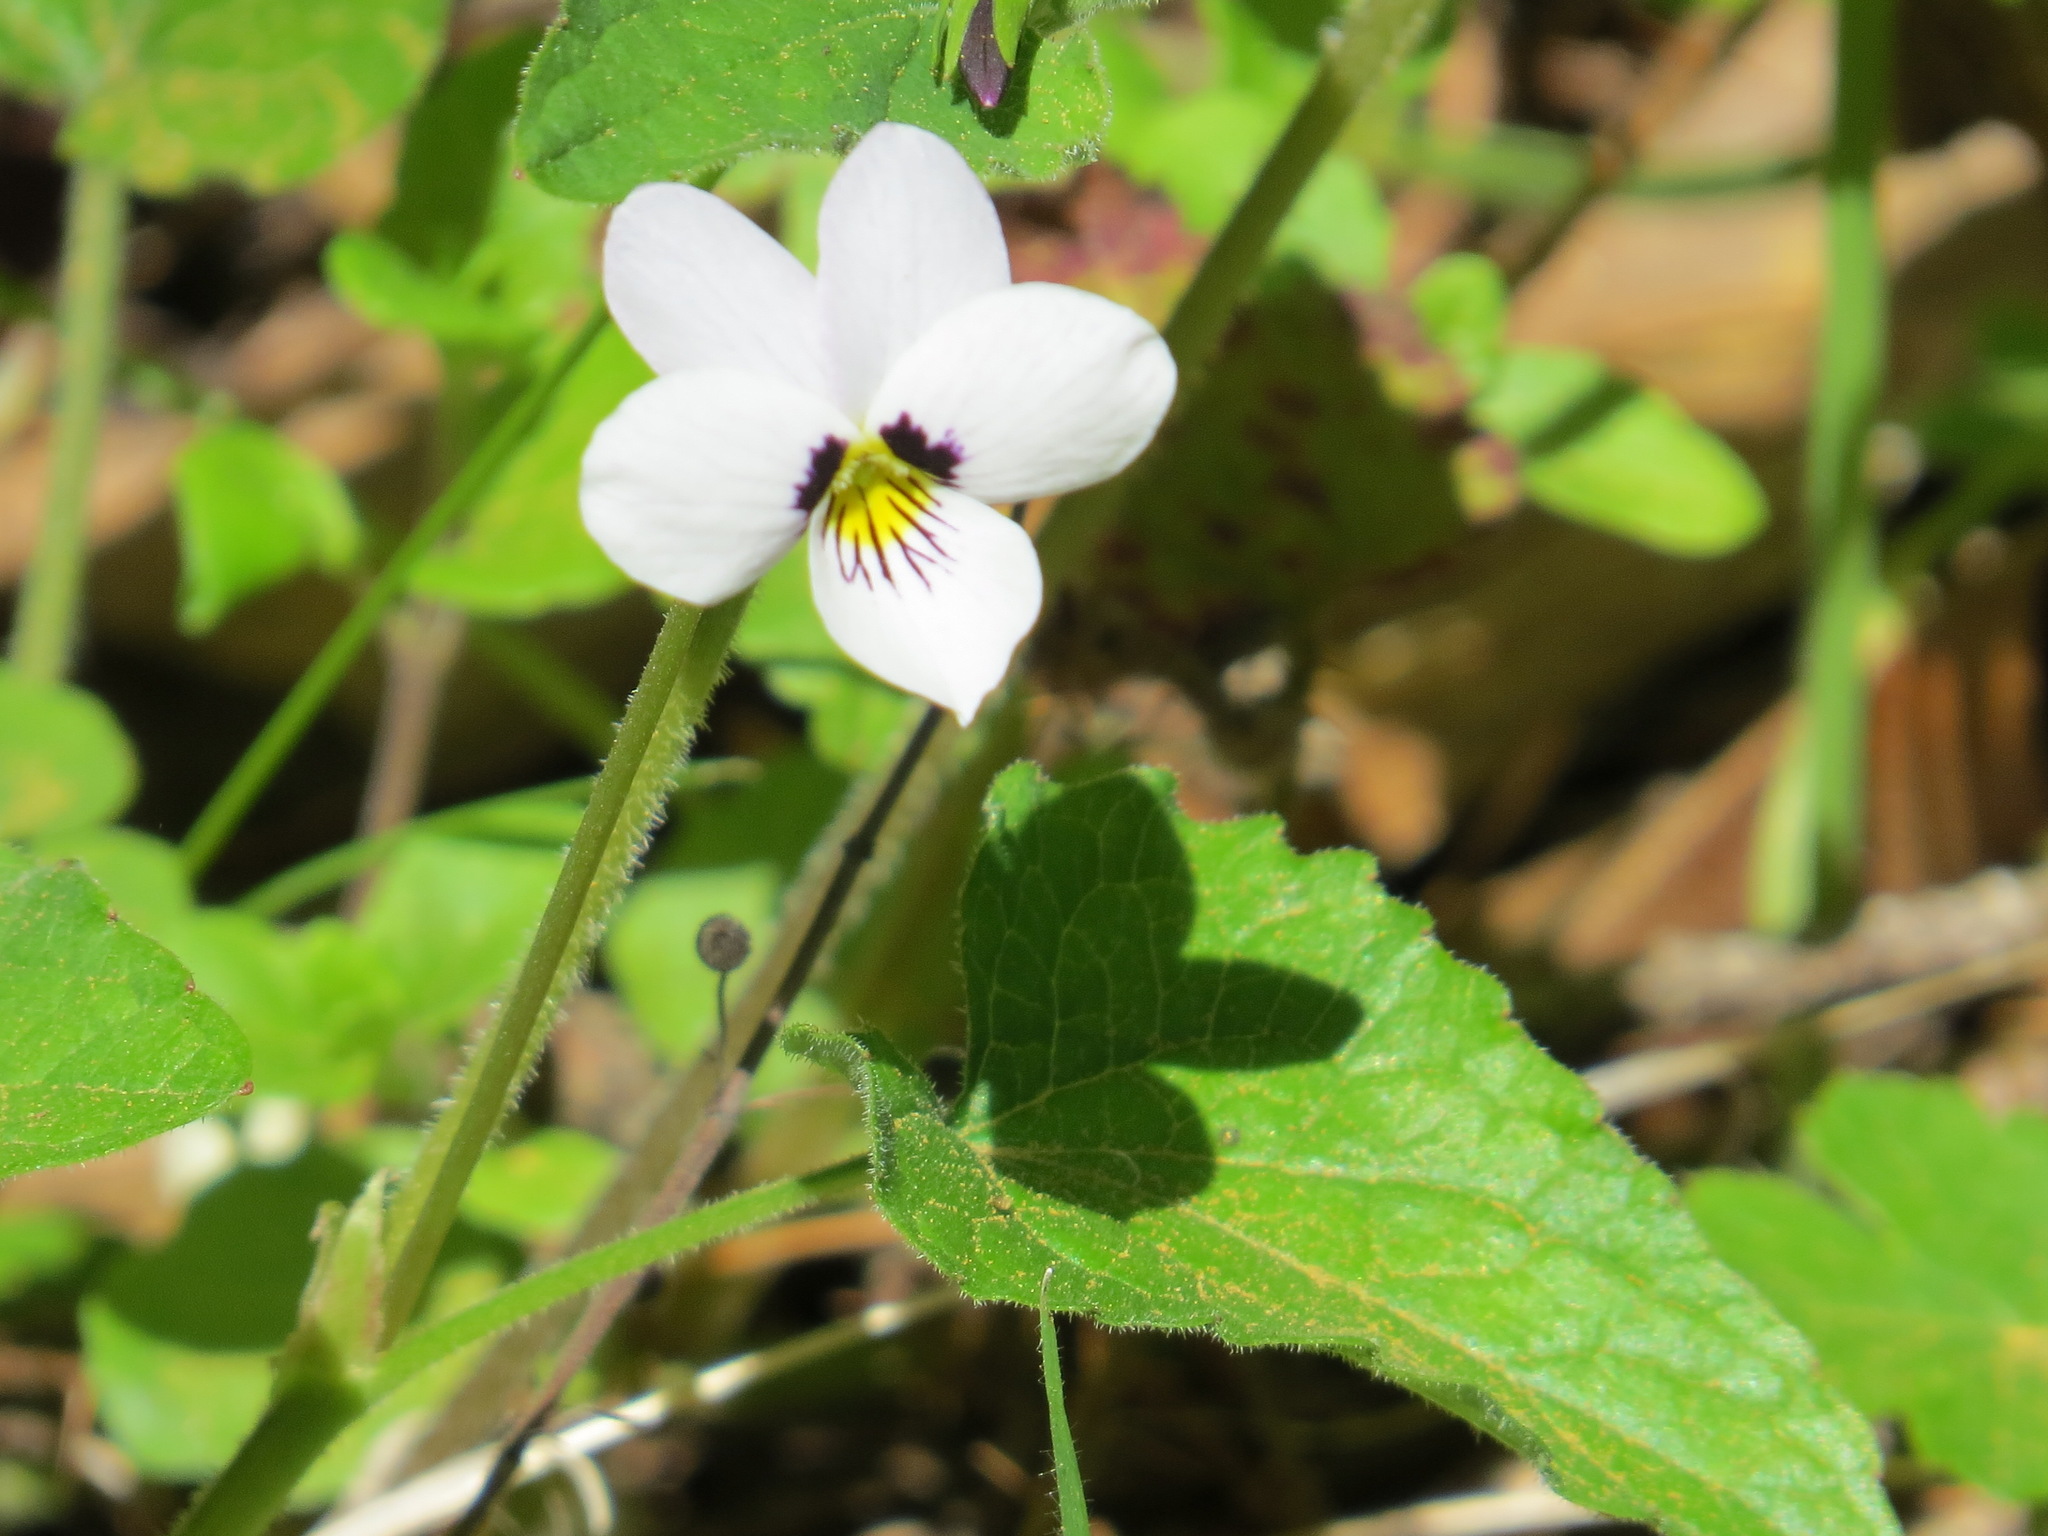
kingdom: Plantae
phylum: Tracheophyta
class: Magnoliopsida
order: Malpighiales
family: Violaceae
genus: Viola
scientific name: Viola ocellata
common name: Western heart's ease
